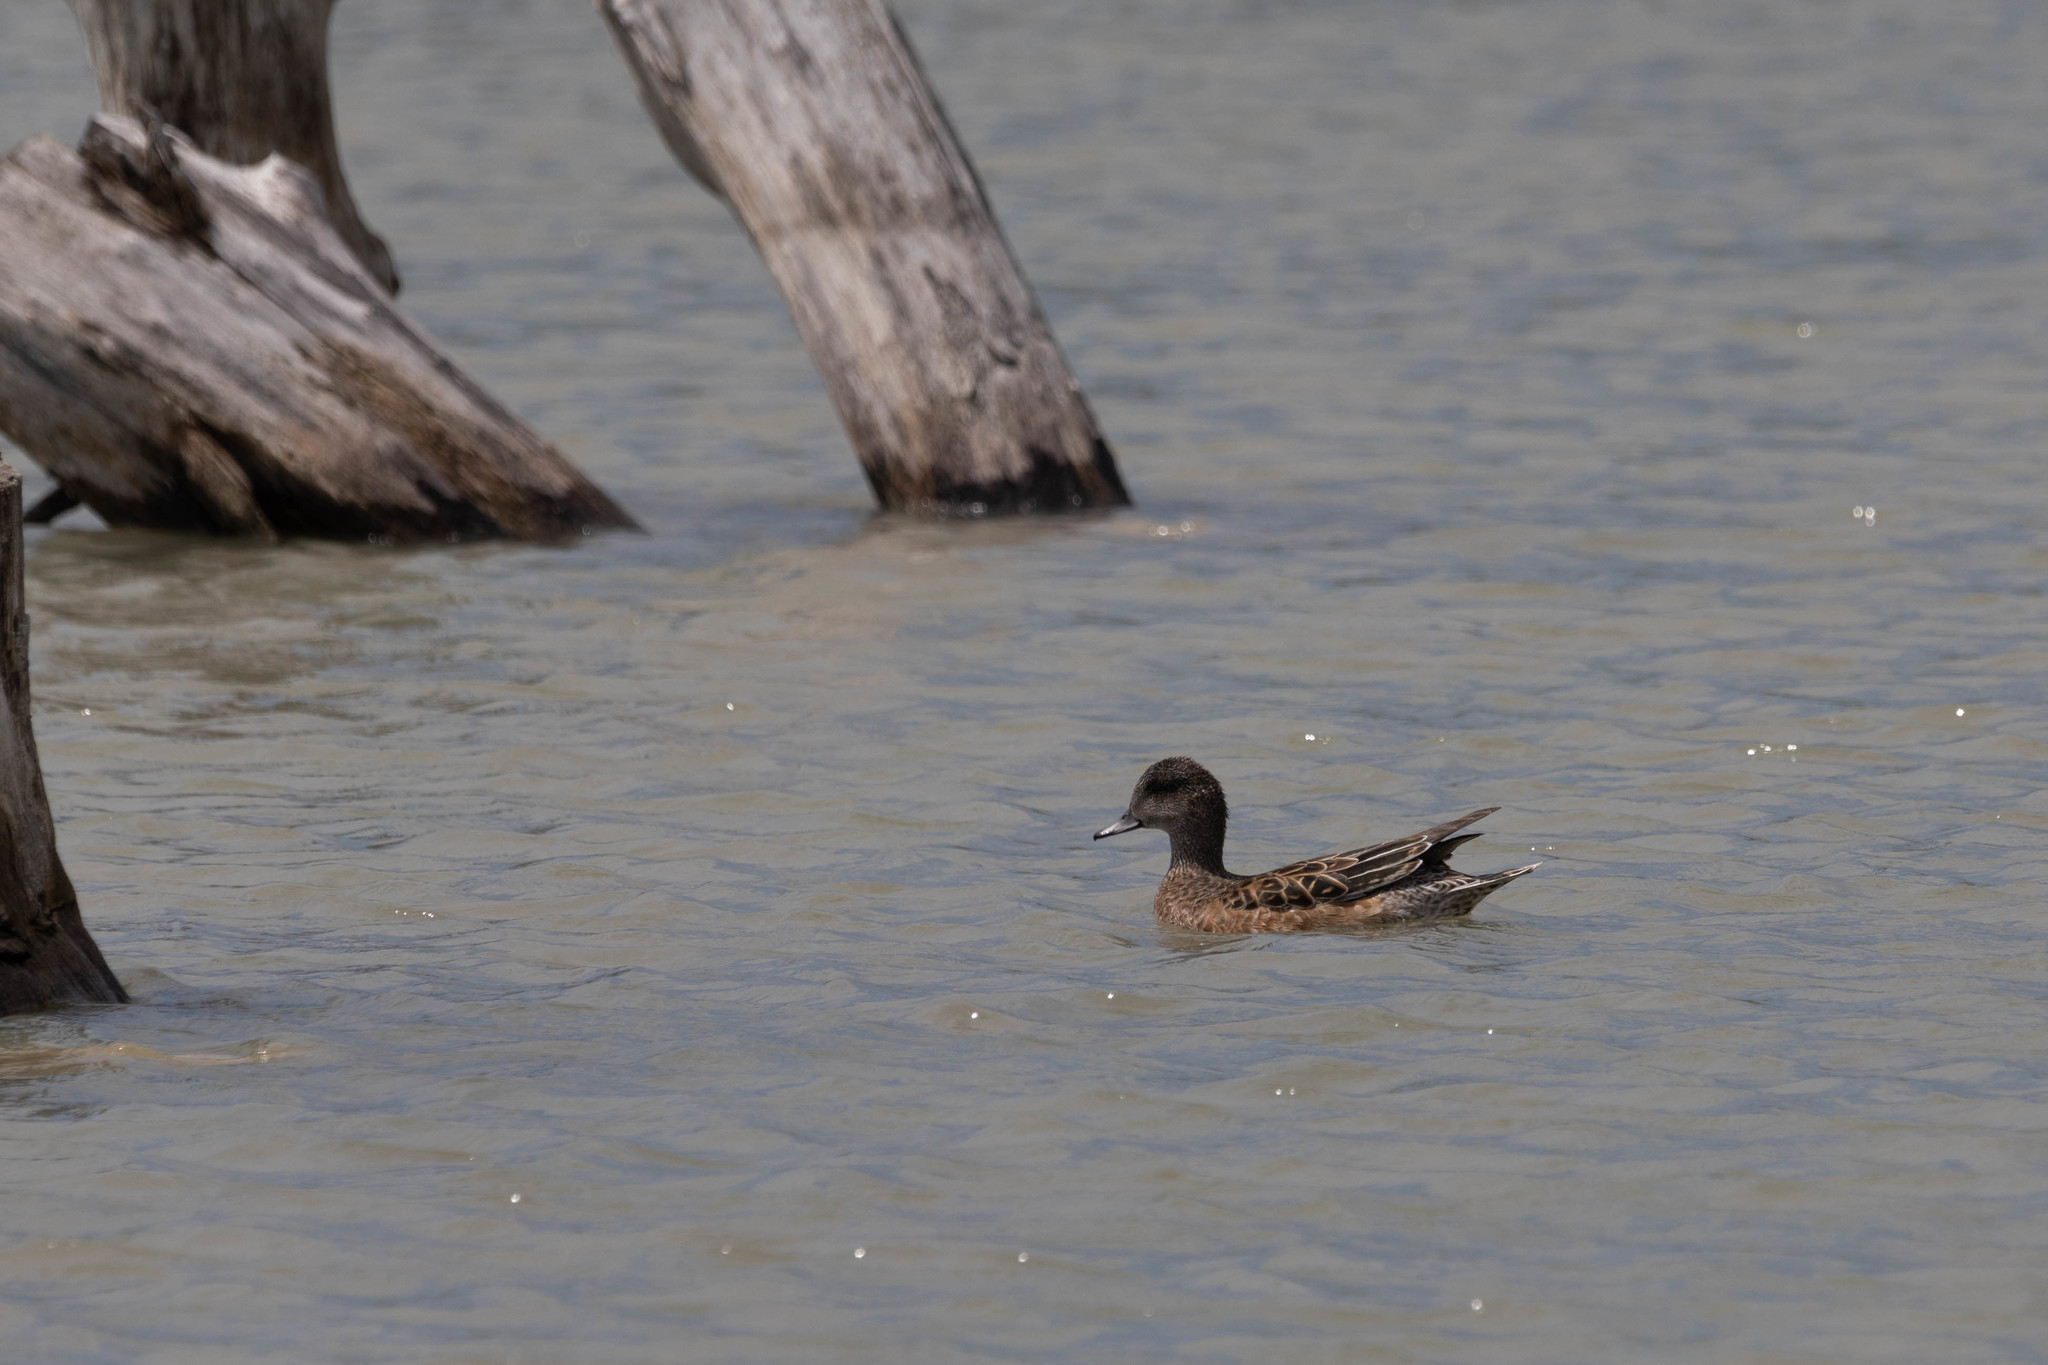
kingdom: Animalia
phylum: Chordata
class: Aves
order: Anseriformes
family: Anatidae
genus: Mareca
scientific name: Mareca americana
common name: American wigeon
